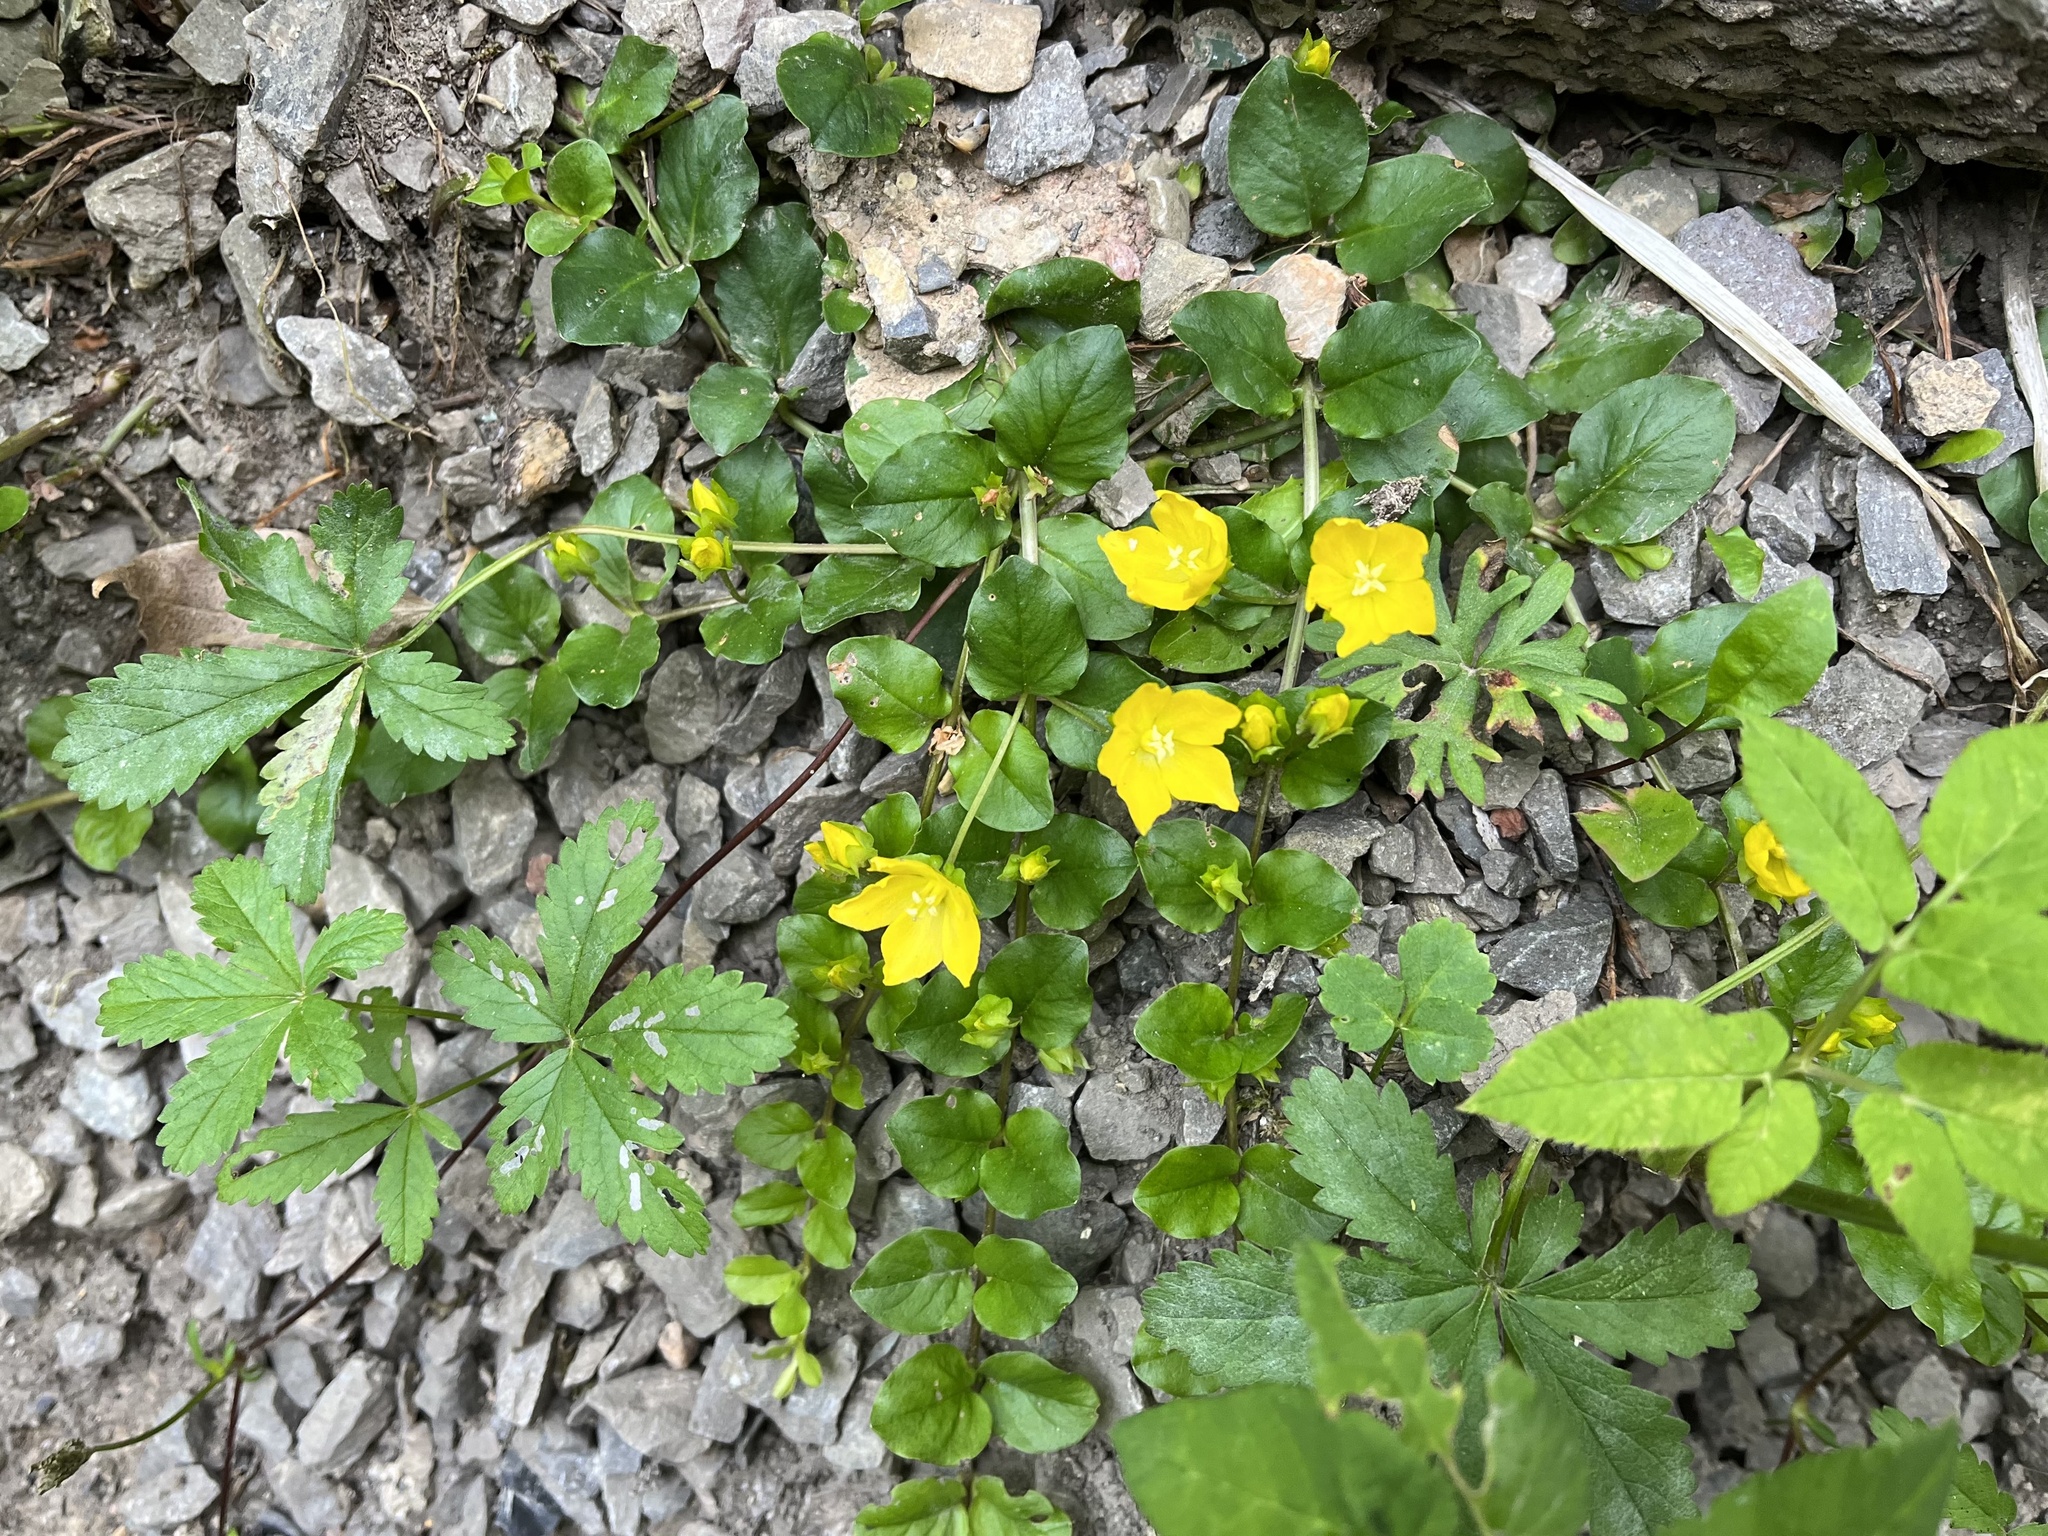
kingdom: Plantae
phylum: Tracheophyta
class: Magnoliopsida
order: Ericales
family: Primulaceae
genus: Lysimachia
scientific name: Lysimachia nummularia
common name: Moneywort
